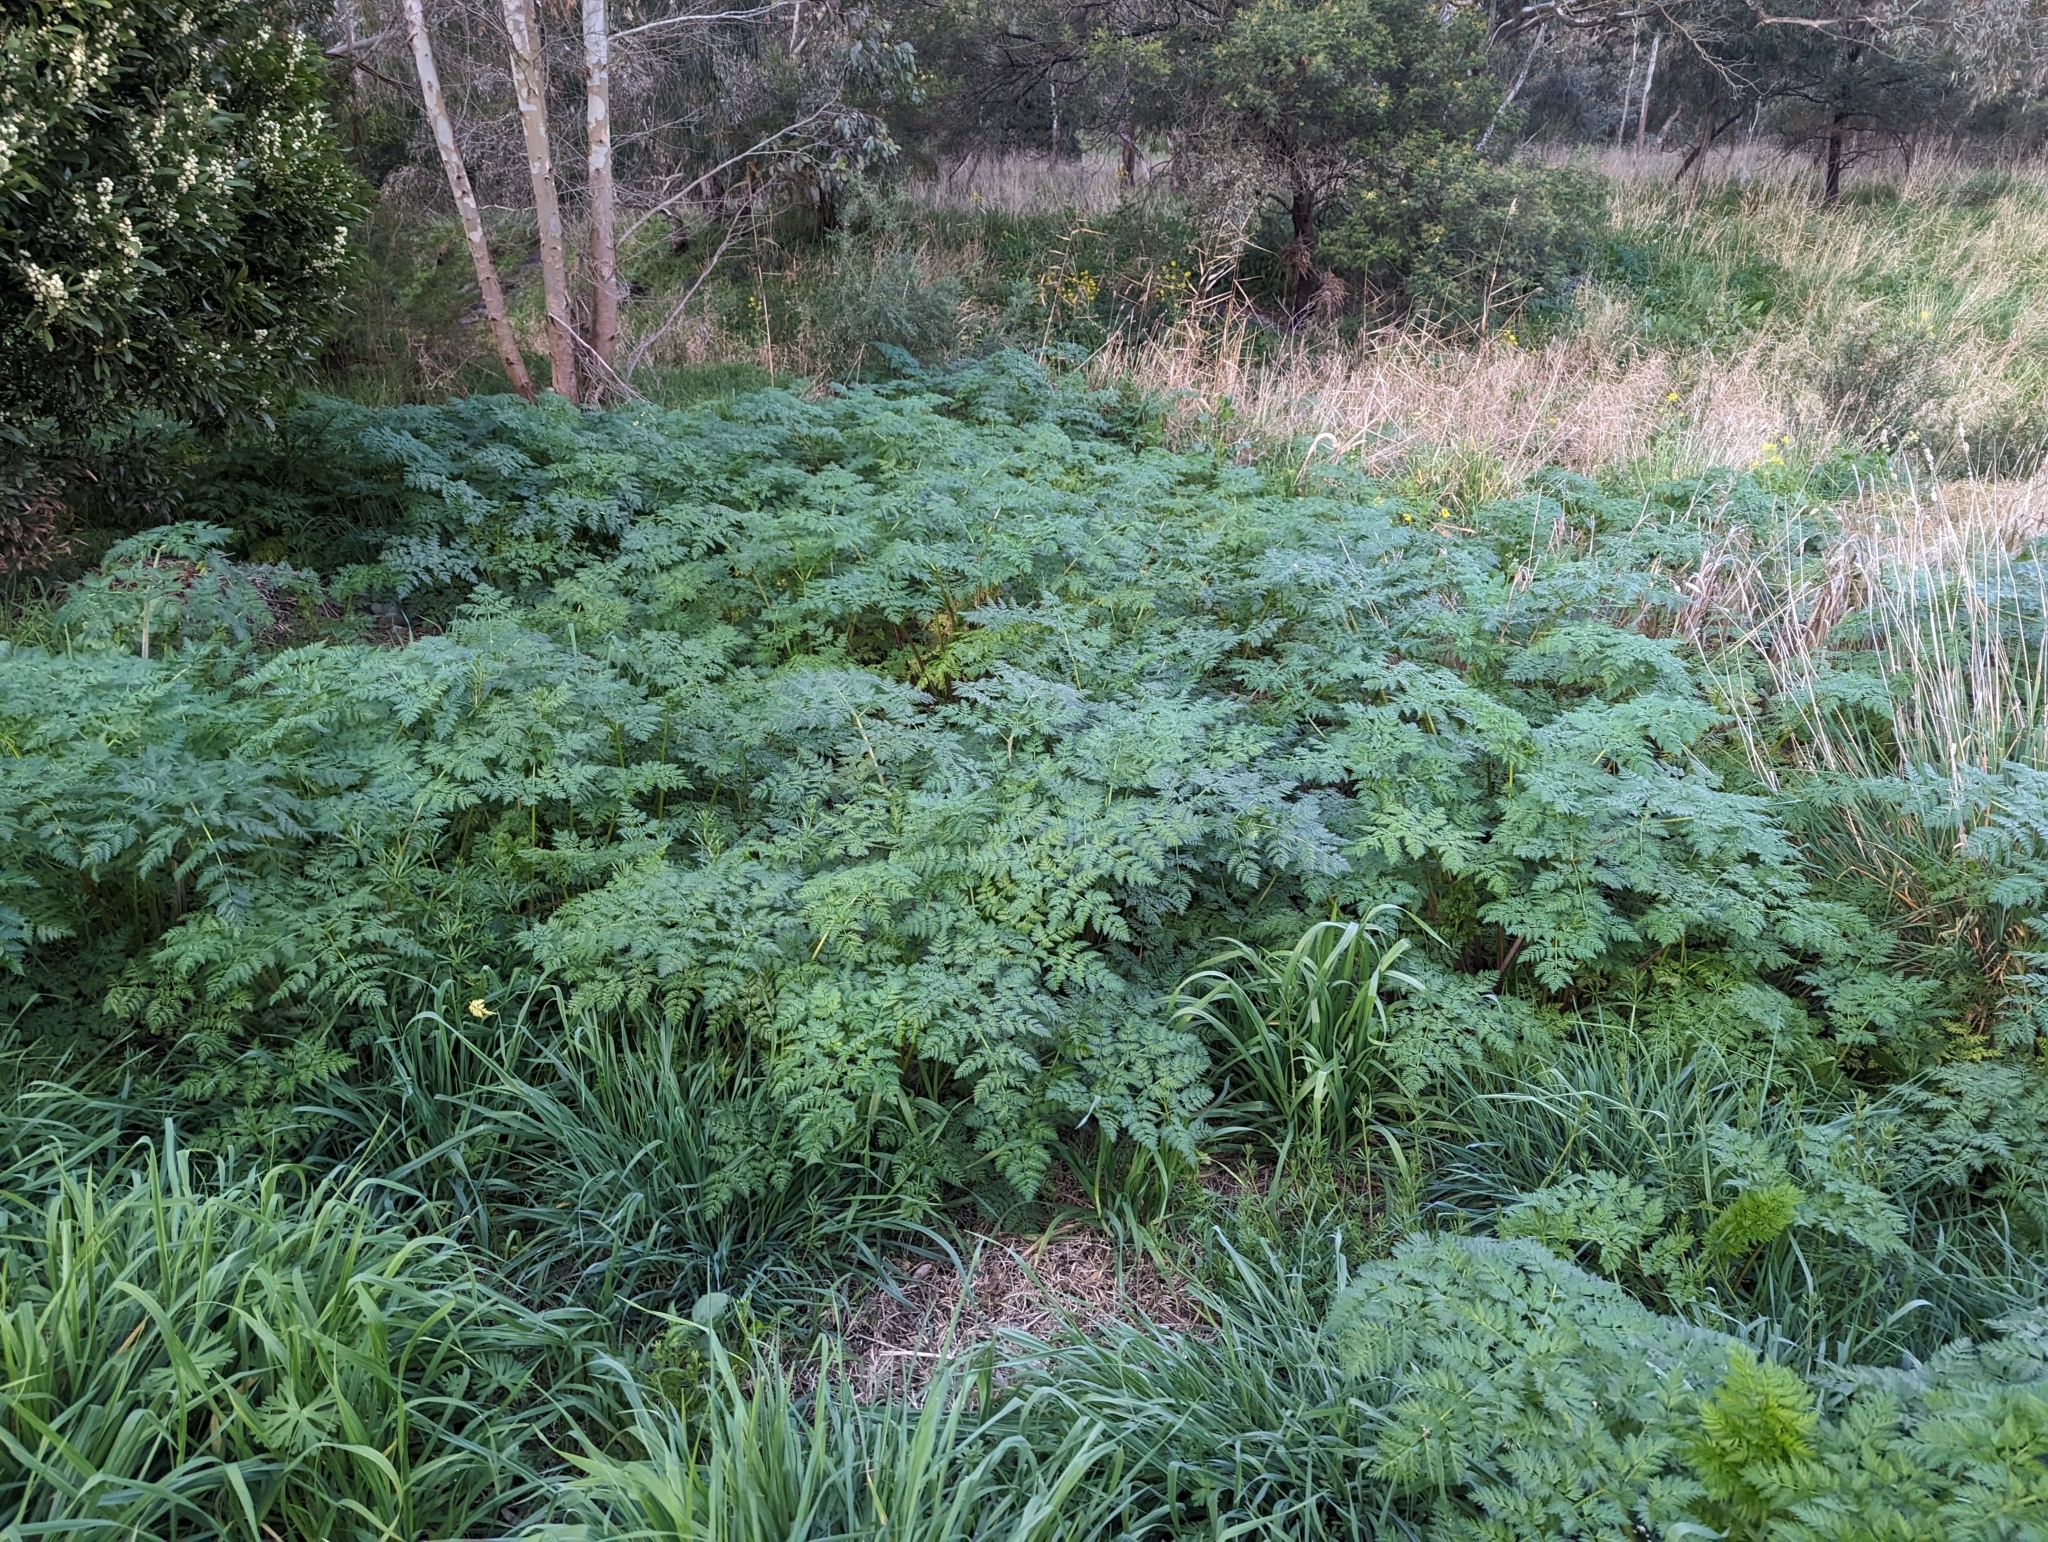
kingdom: Plantae
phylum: Tracheophyta
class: Magnoliopsida
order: Apiales
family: Apiaceae
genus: Conium
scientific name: Conium maculatum
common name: Hemlock
